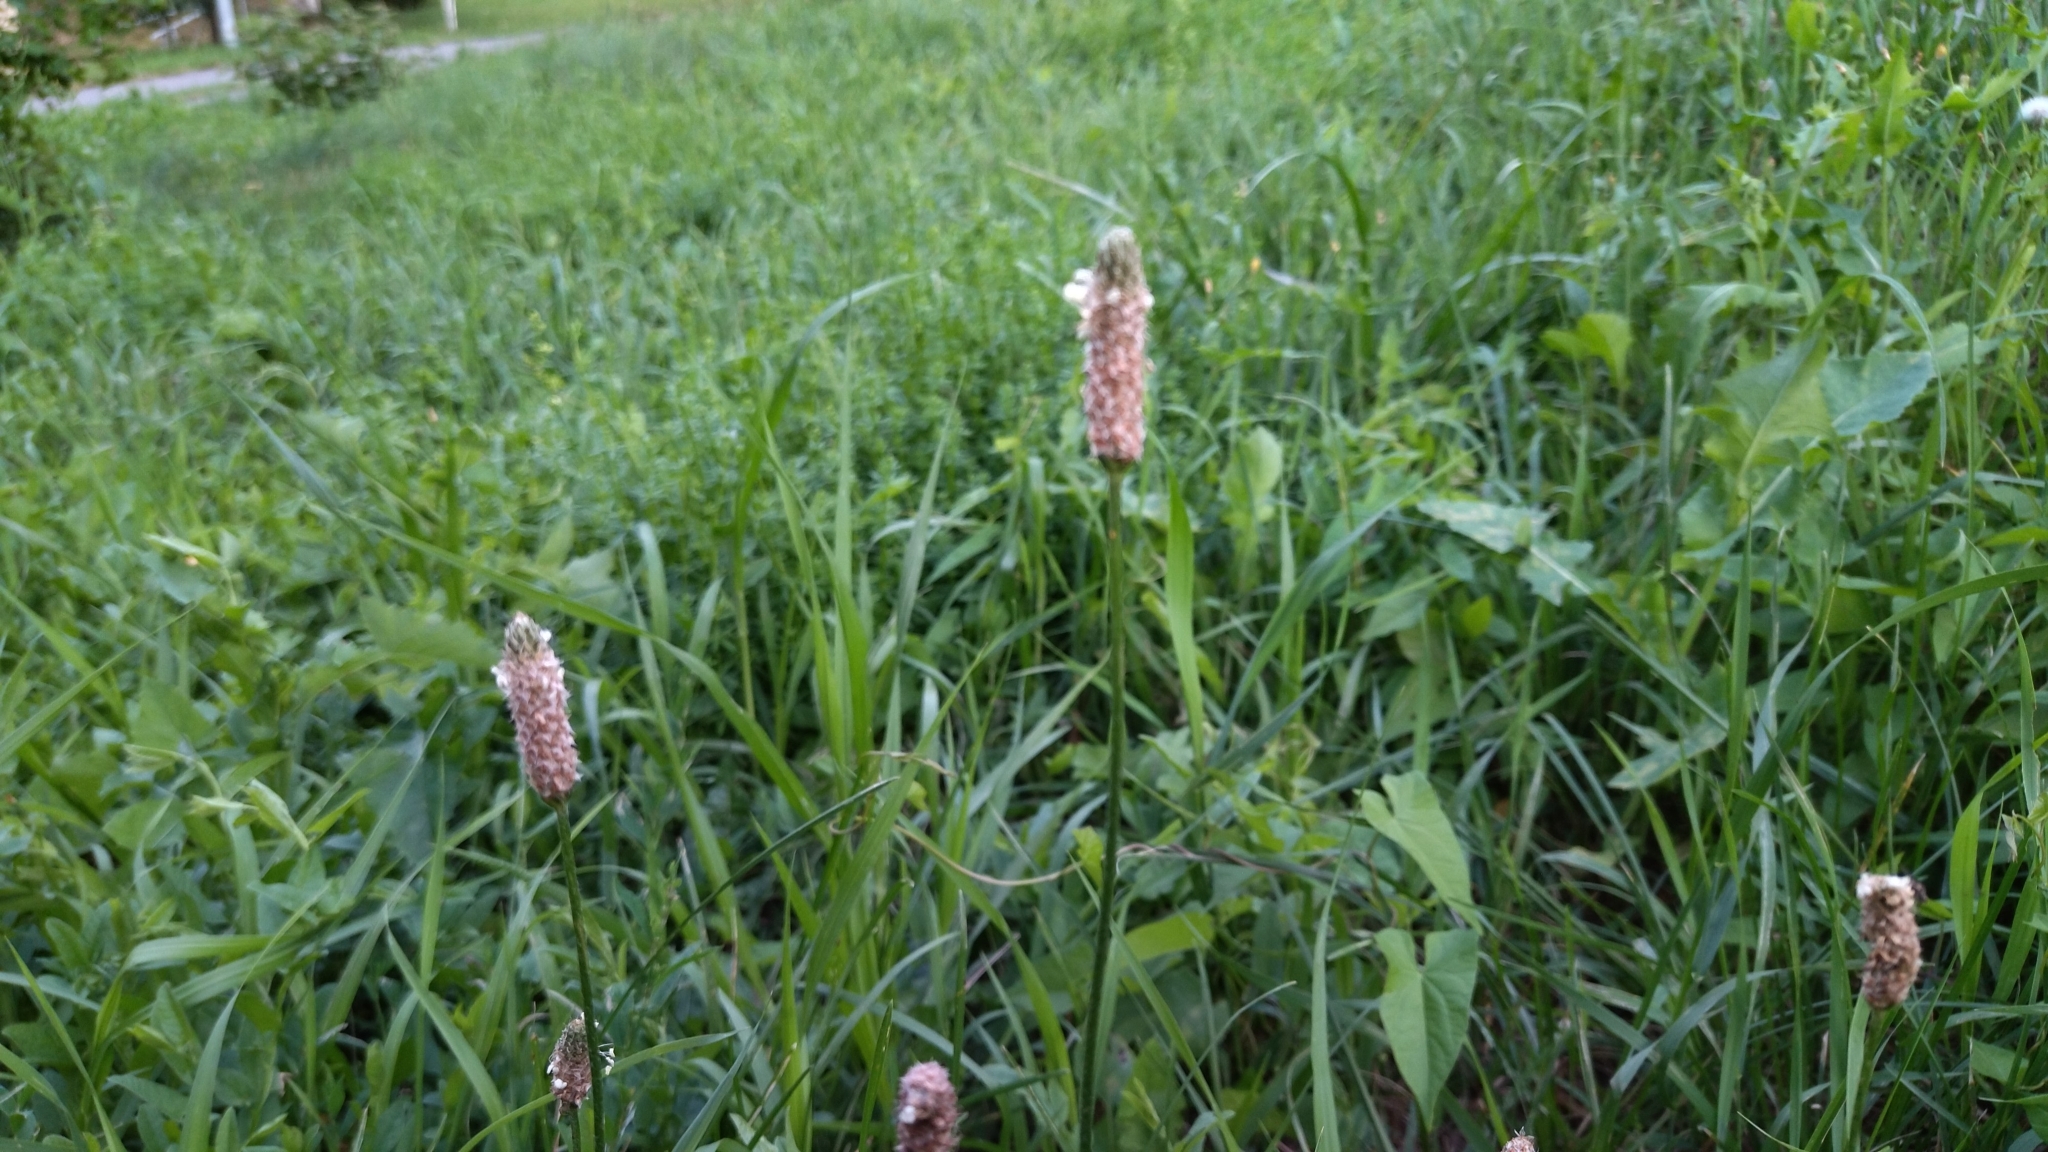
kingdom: Plantae
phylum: Tracheophyta
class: Magnoliopsida
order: Lamiales
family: Plantaginaceae
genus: Plantago
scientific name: Plantago lanceolata
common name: Ribwort plantain
